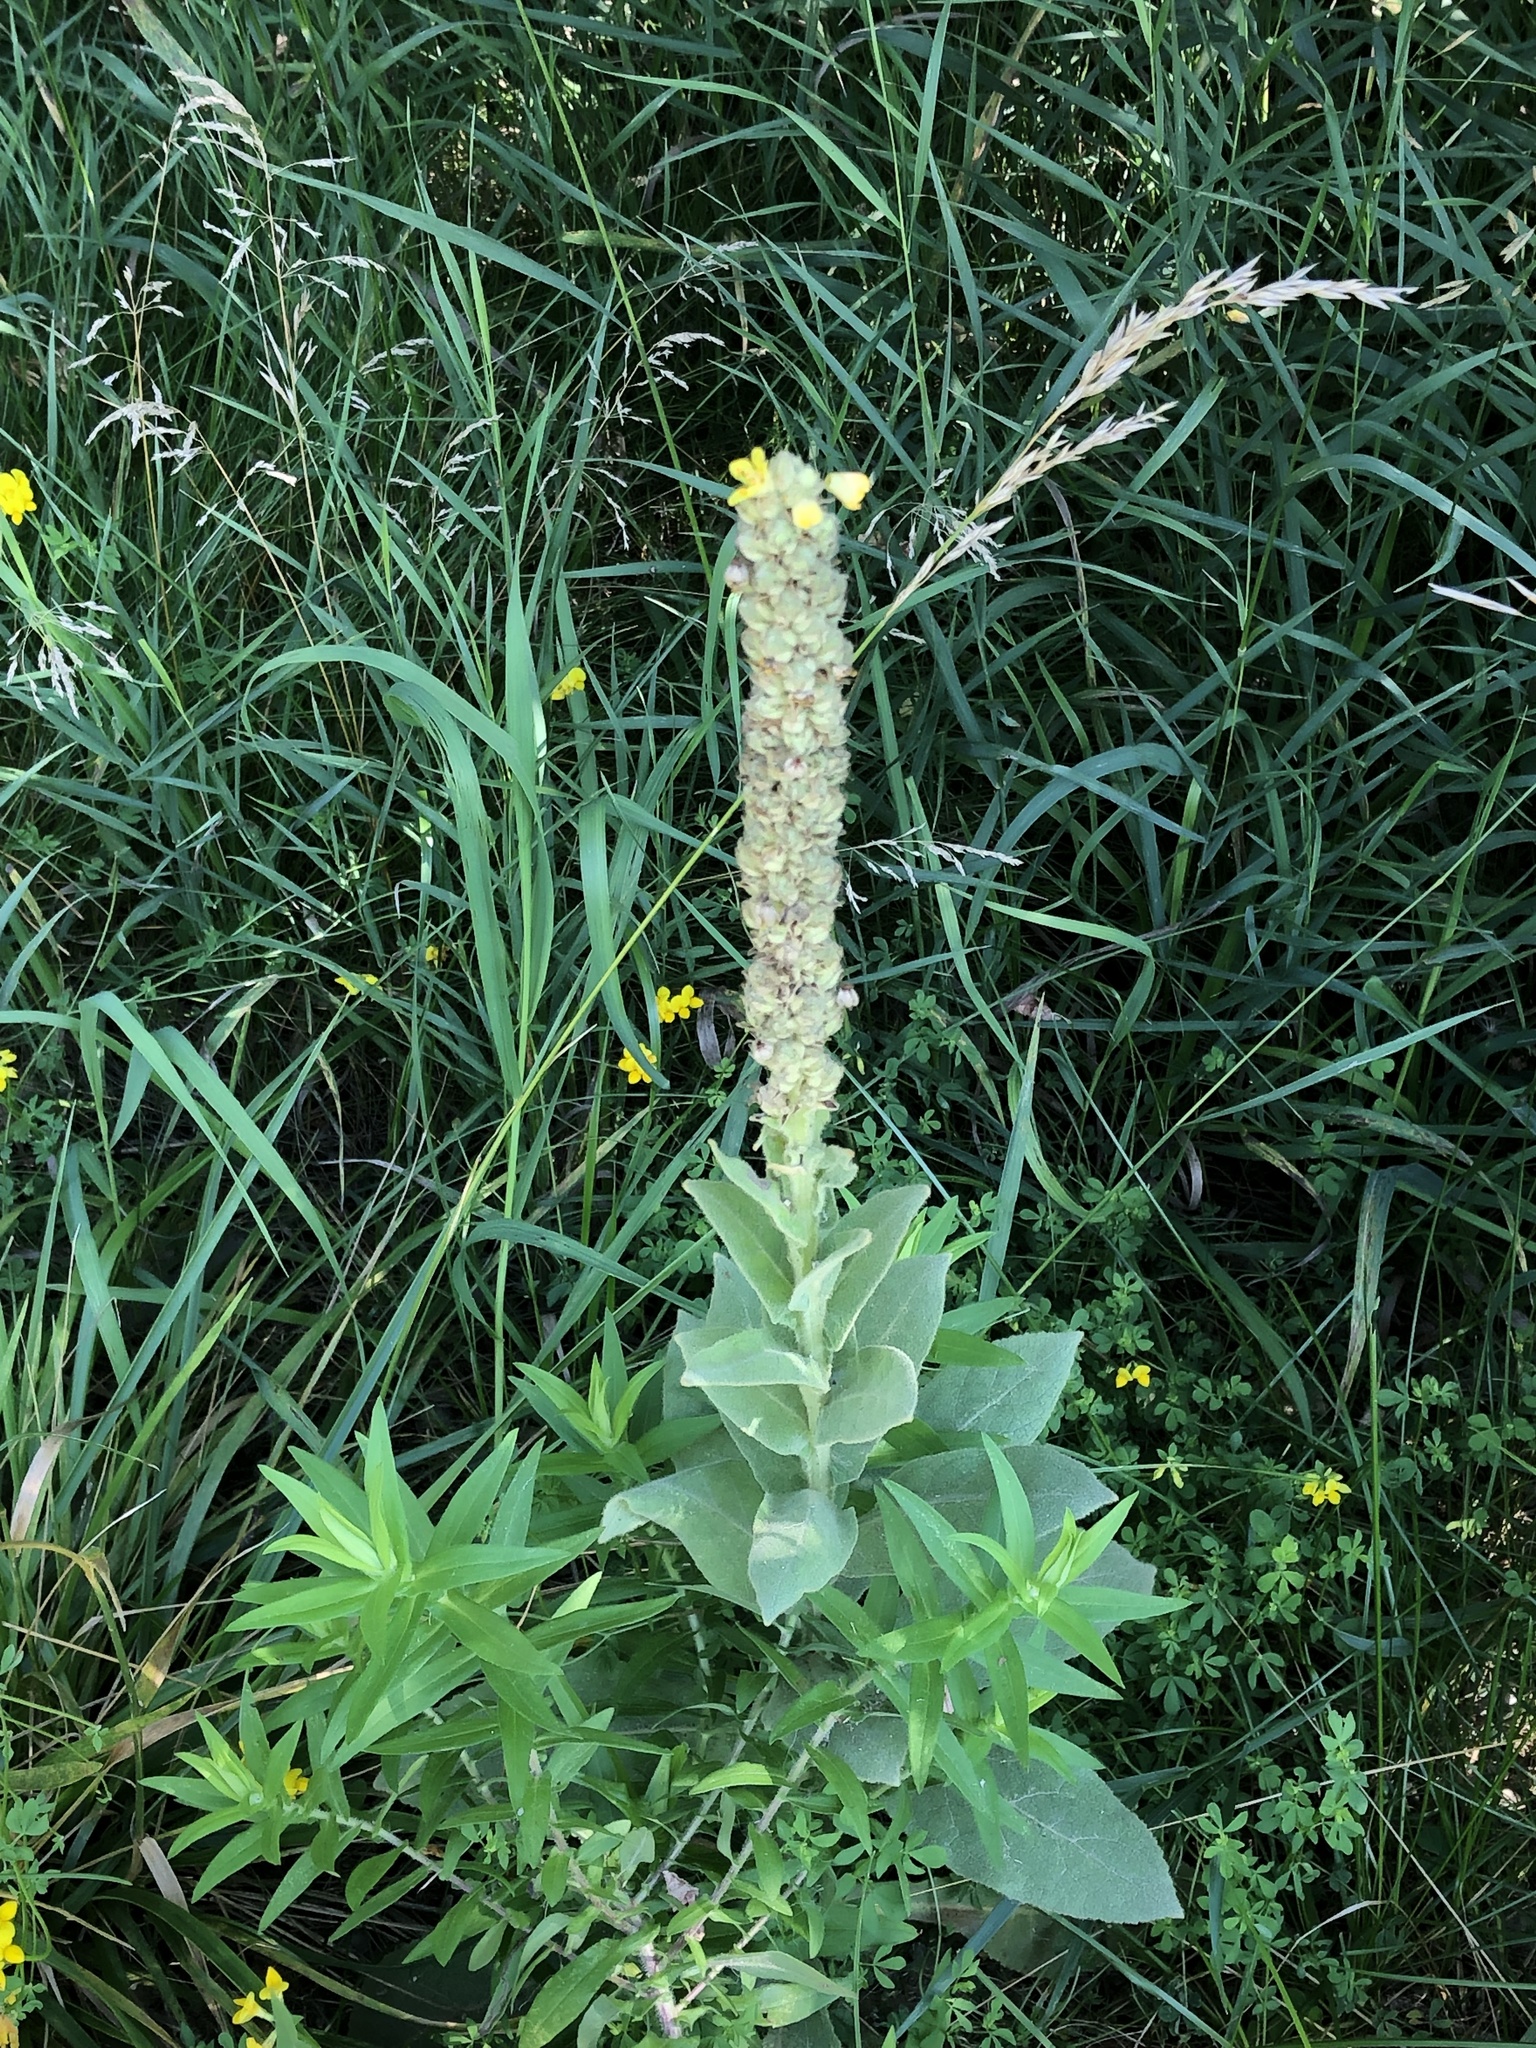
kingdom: Plantae
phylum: Tracheophyta
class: Magnoliopsida
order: Lamiales
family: Scrophulariaceae
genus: Verbascum
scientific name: Verbascum thapsus
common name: Common mullein
